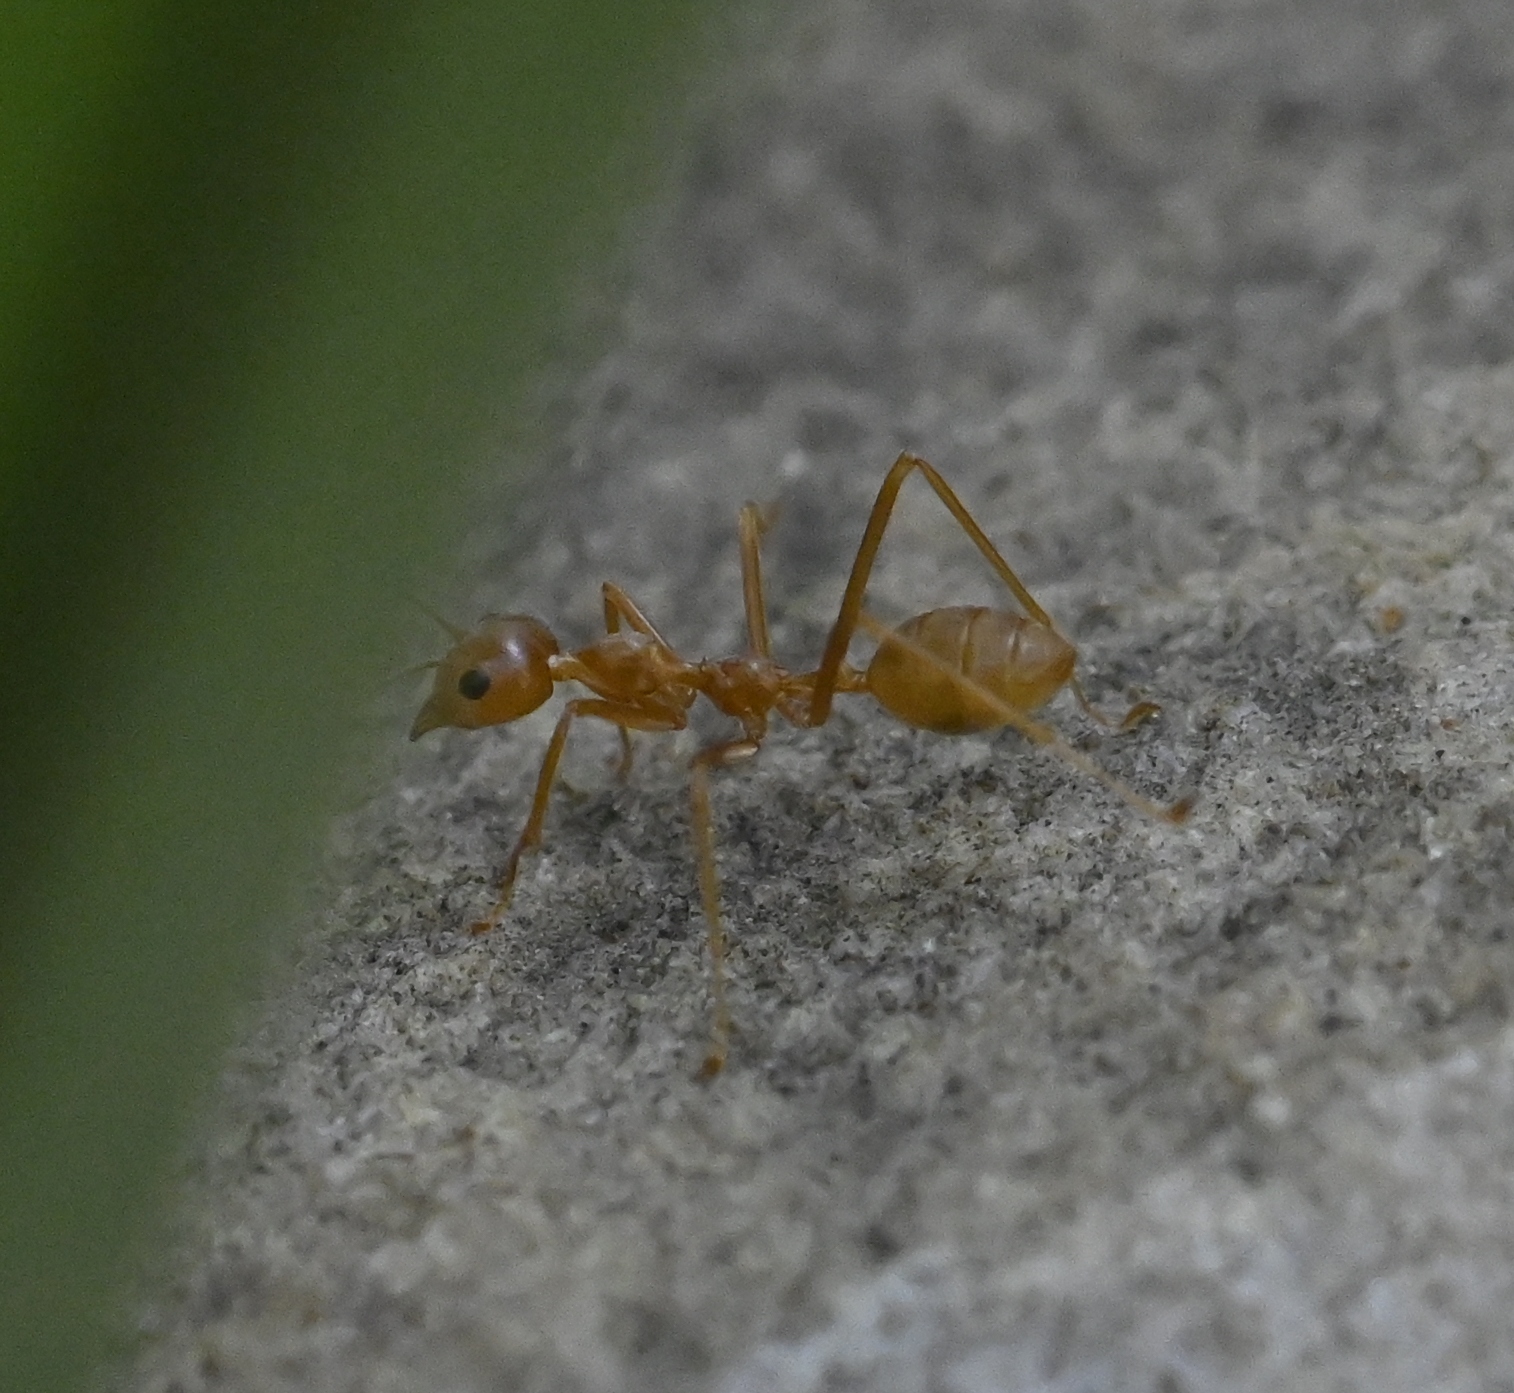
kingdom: Animalia
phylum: Arthropoda
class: Insecta
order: Hymenoptera
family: Formicidae
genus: Oecophylla
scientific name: Oecophylla smaragdina
